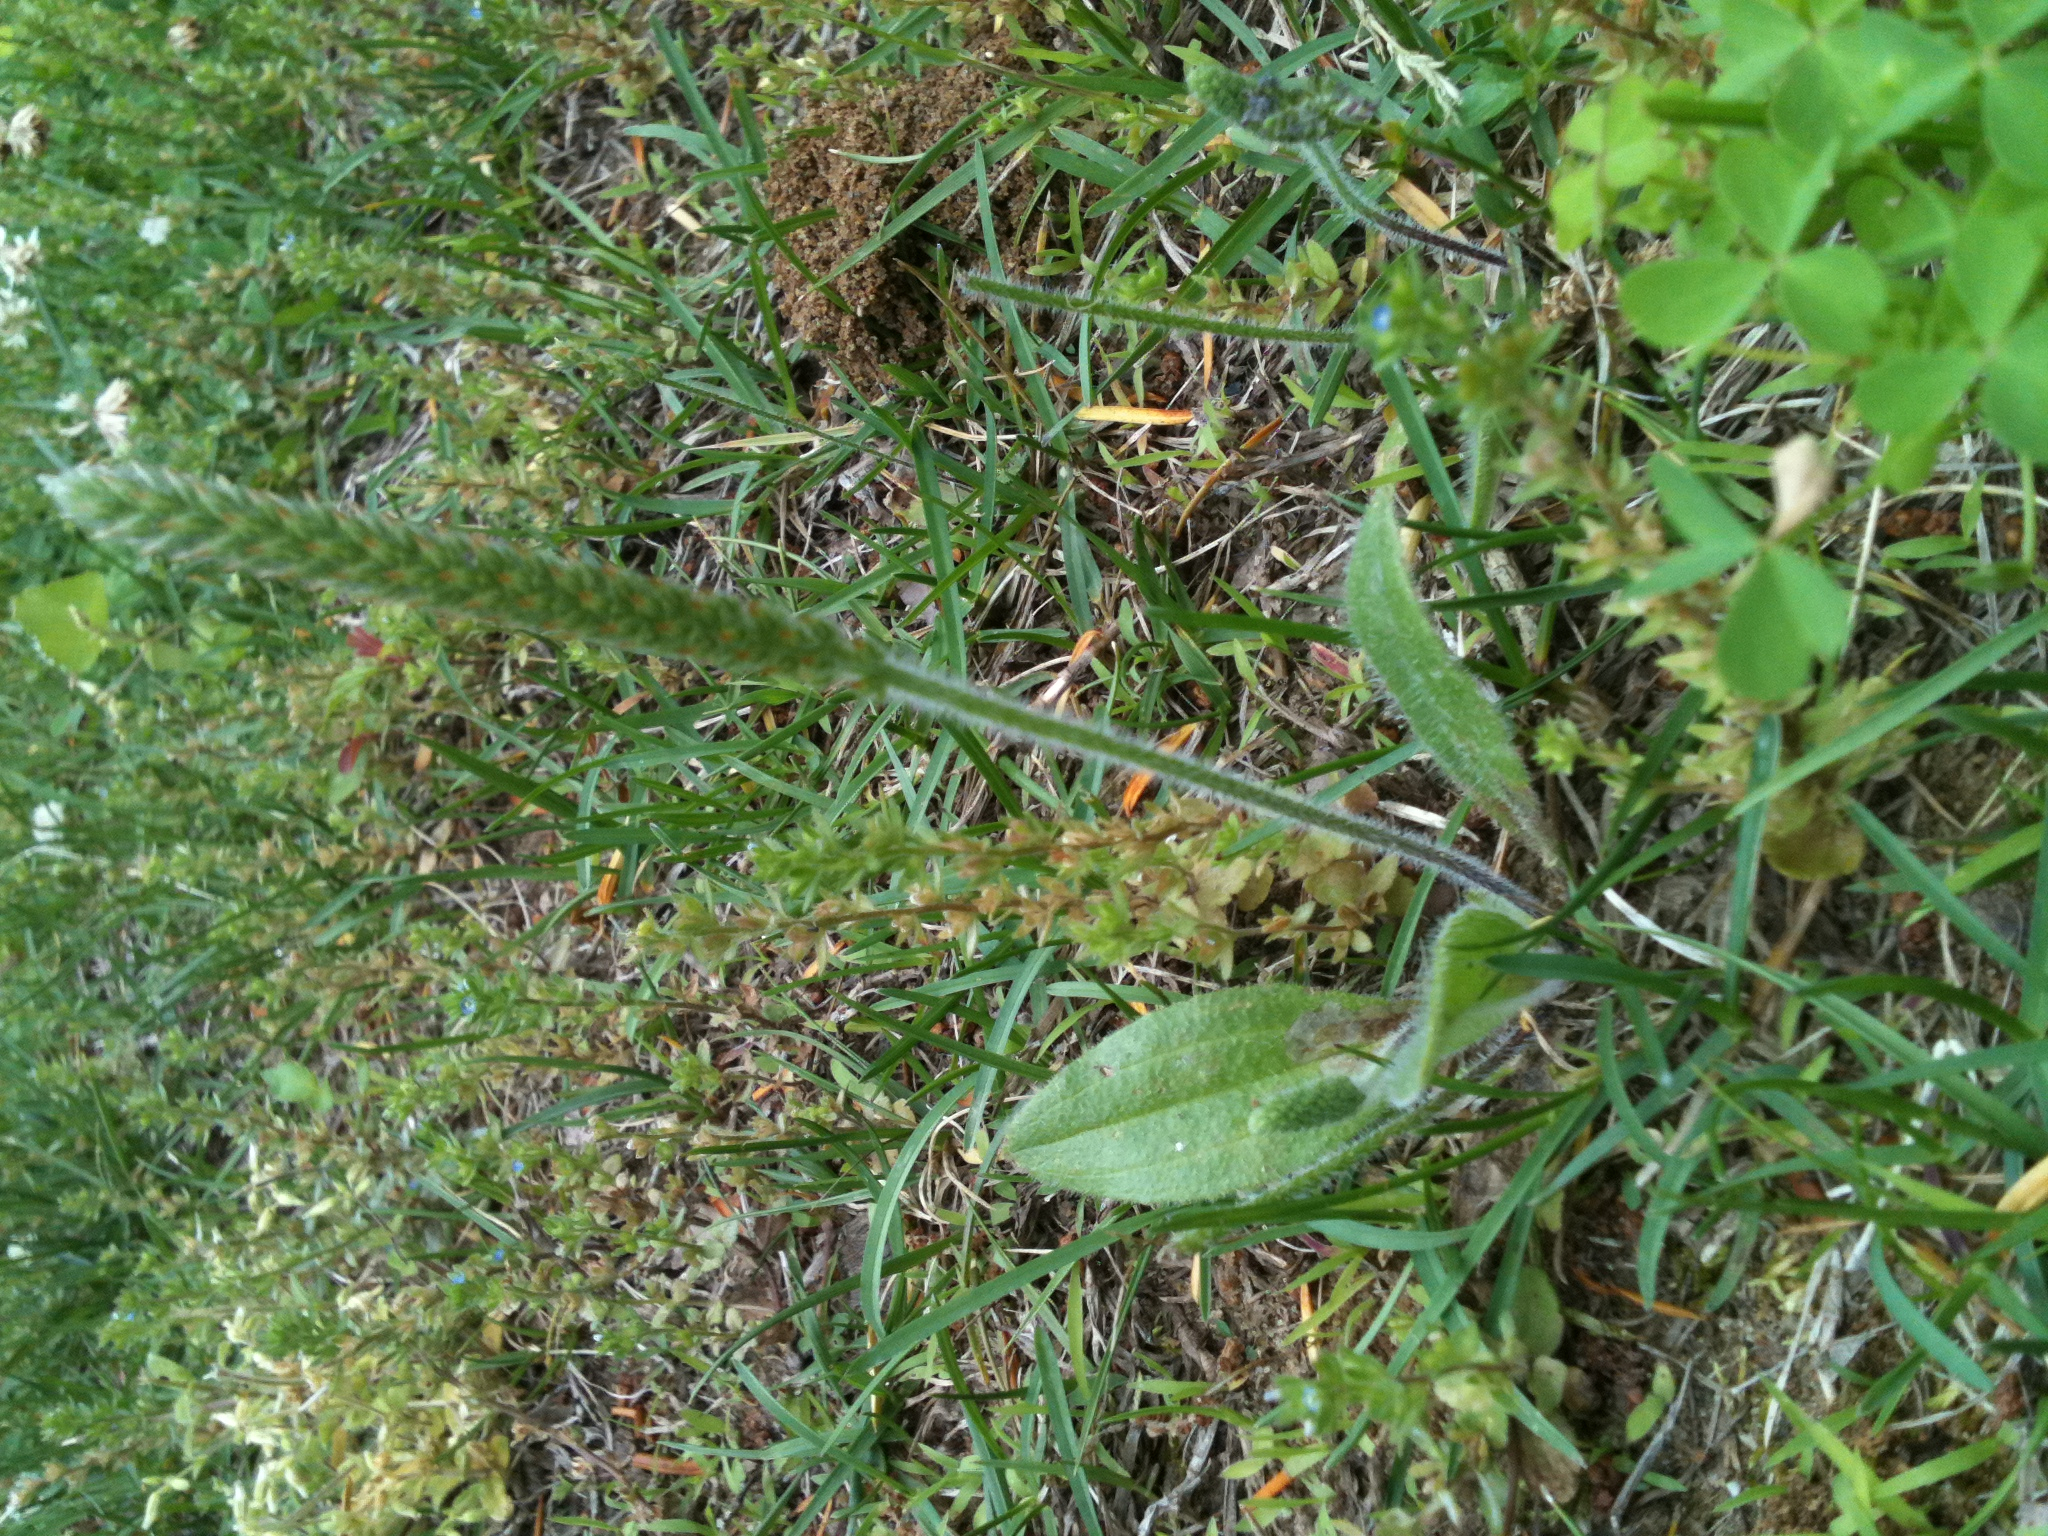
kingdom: Plantae
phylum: Tracheophyta
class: Magnoliopsida
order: Lamiales
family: Plantaginaceae
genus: Plantago
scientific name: Plantago virginica
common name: Hoary plantain
